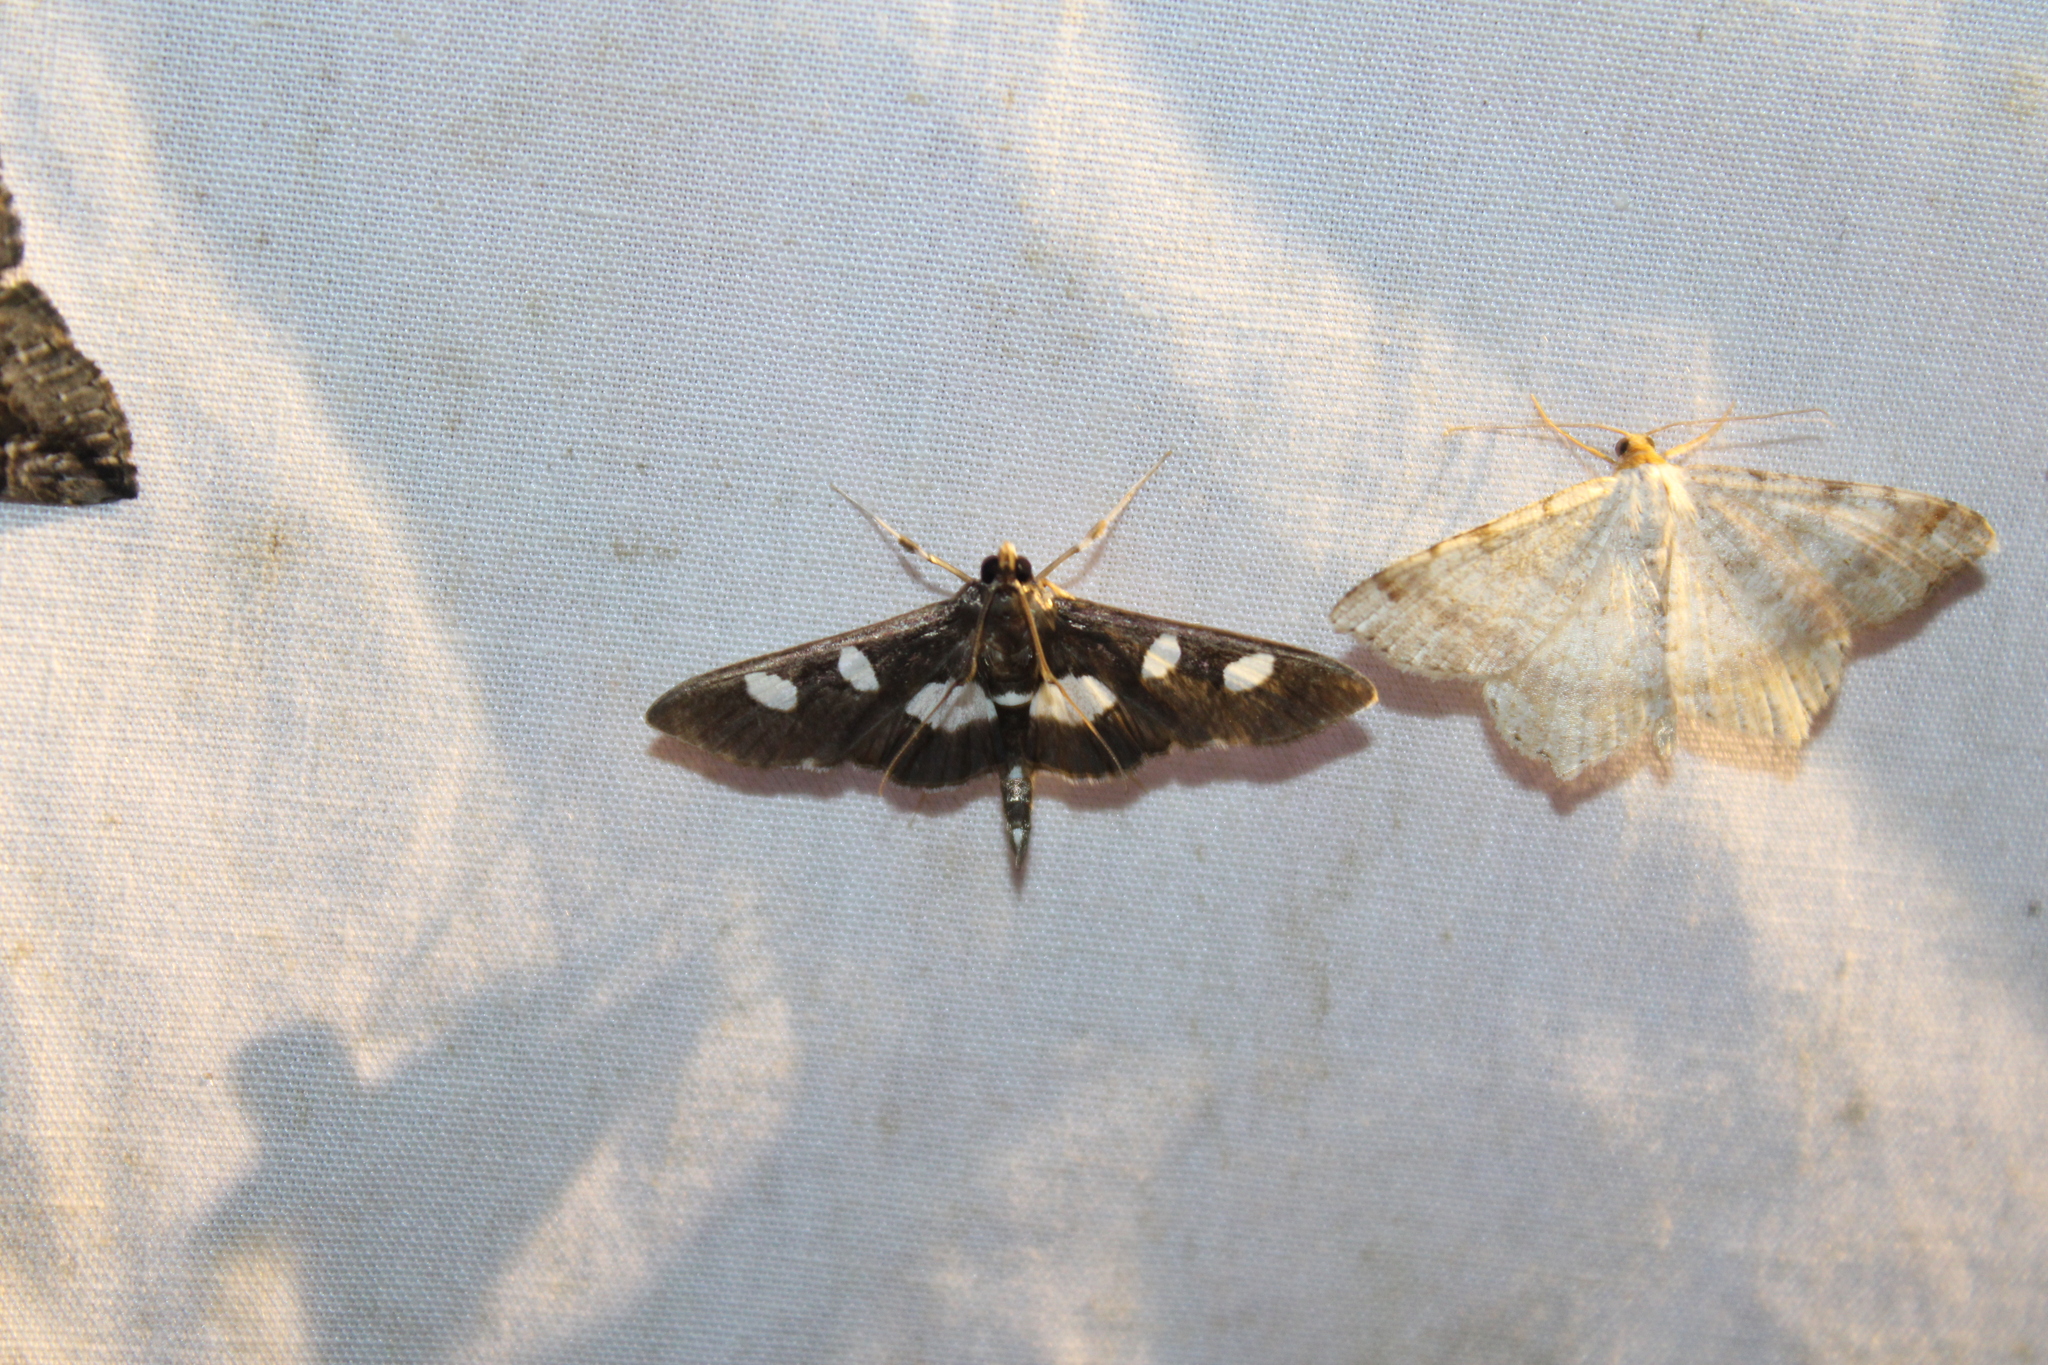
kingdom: Animalia
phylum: Arthropoda
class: Insecta
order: Lepidoptera
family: Crambidae
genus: Desmia
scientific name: Desmia
